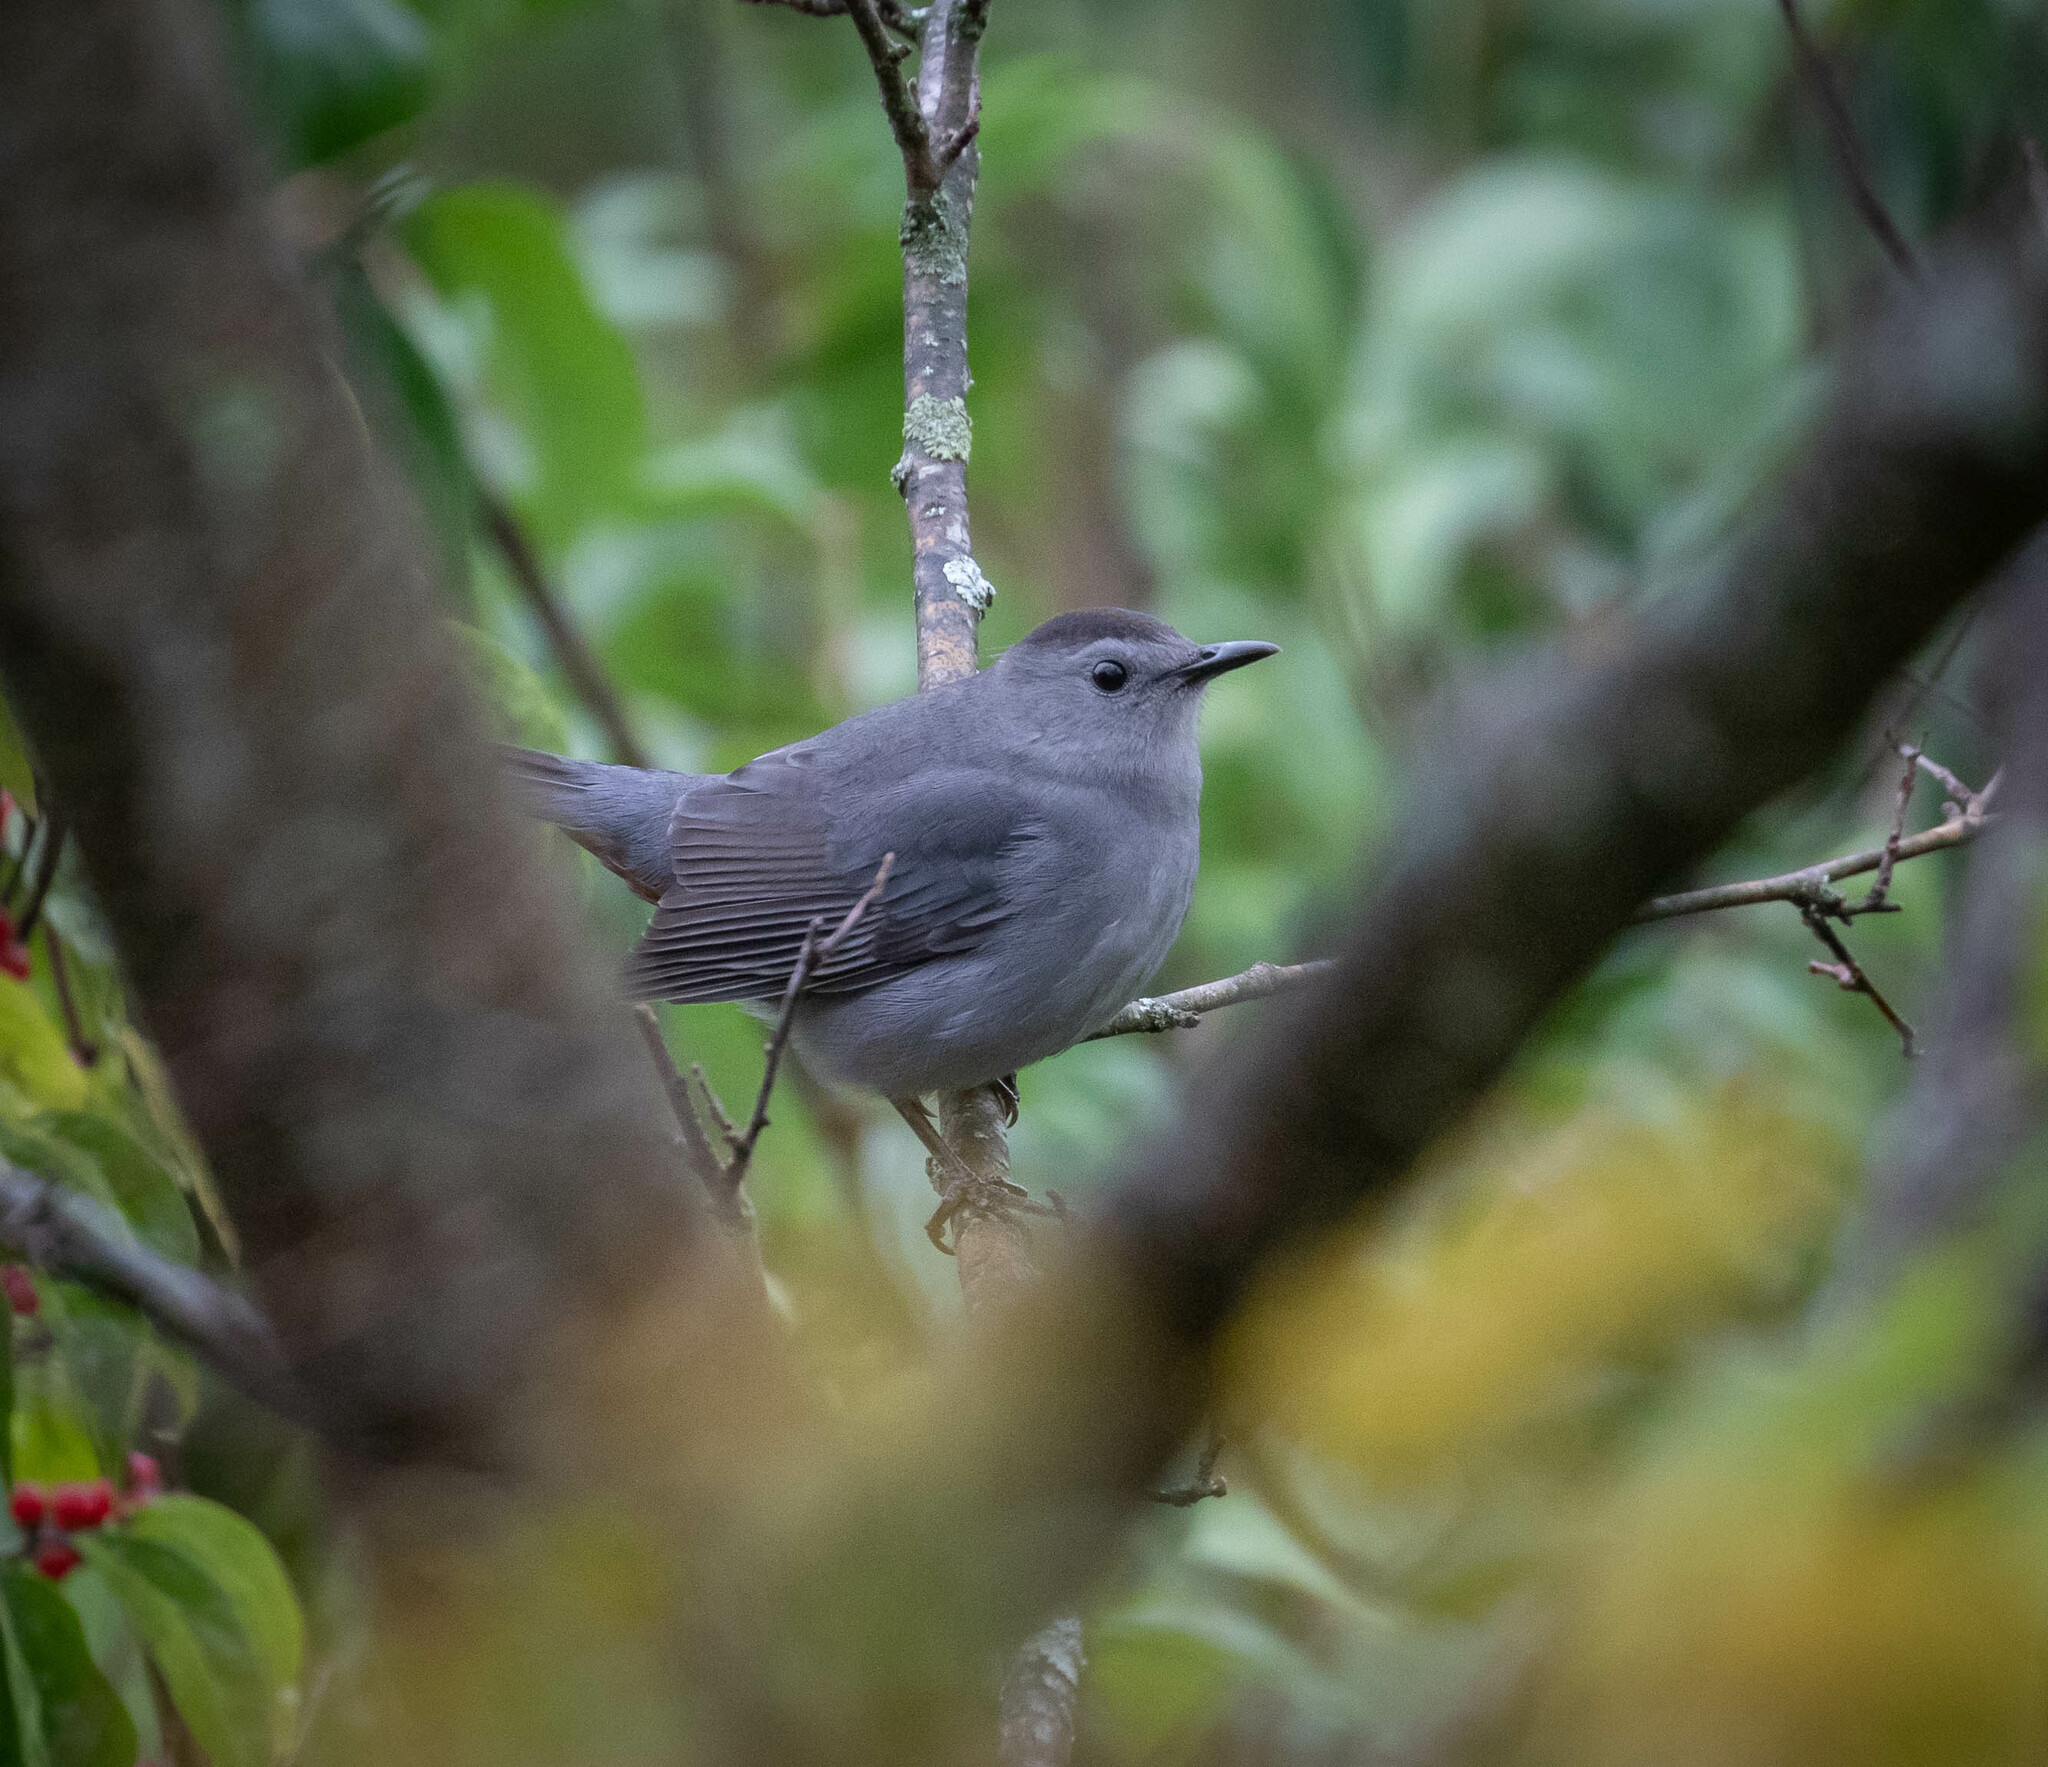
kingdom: Animalia
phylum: Chordata
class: Aves
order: Passeriformes
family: Mimidae
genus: Dumetella
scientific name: Dumetella carolinensis
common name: Gray catbird
